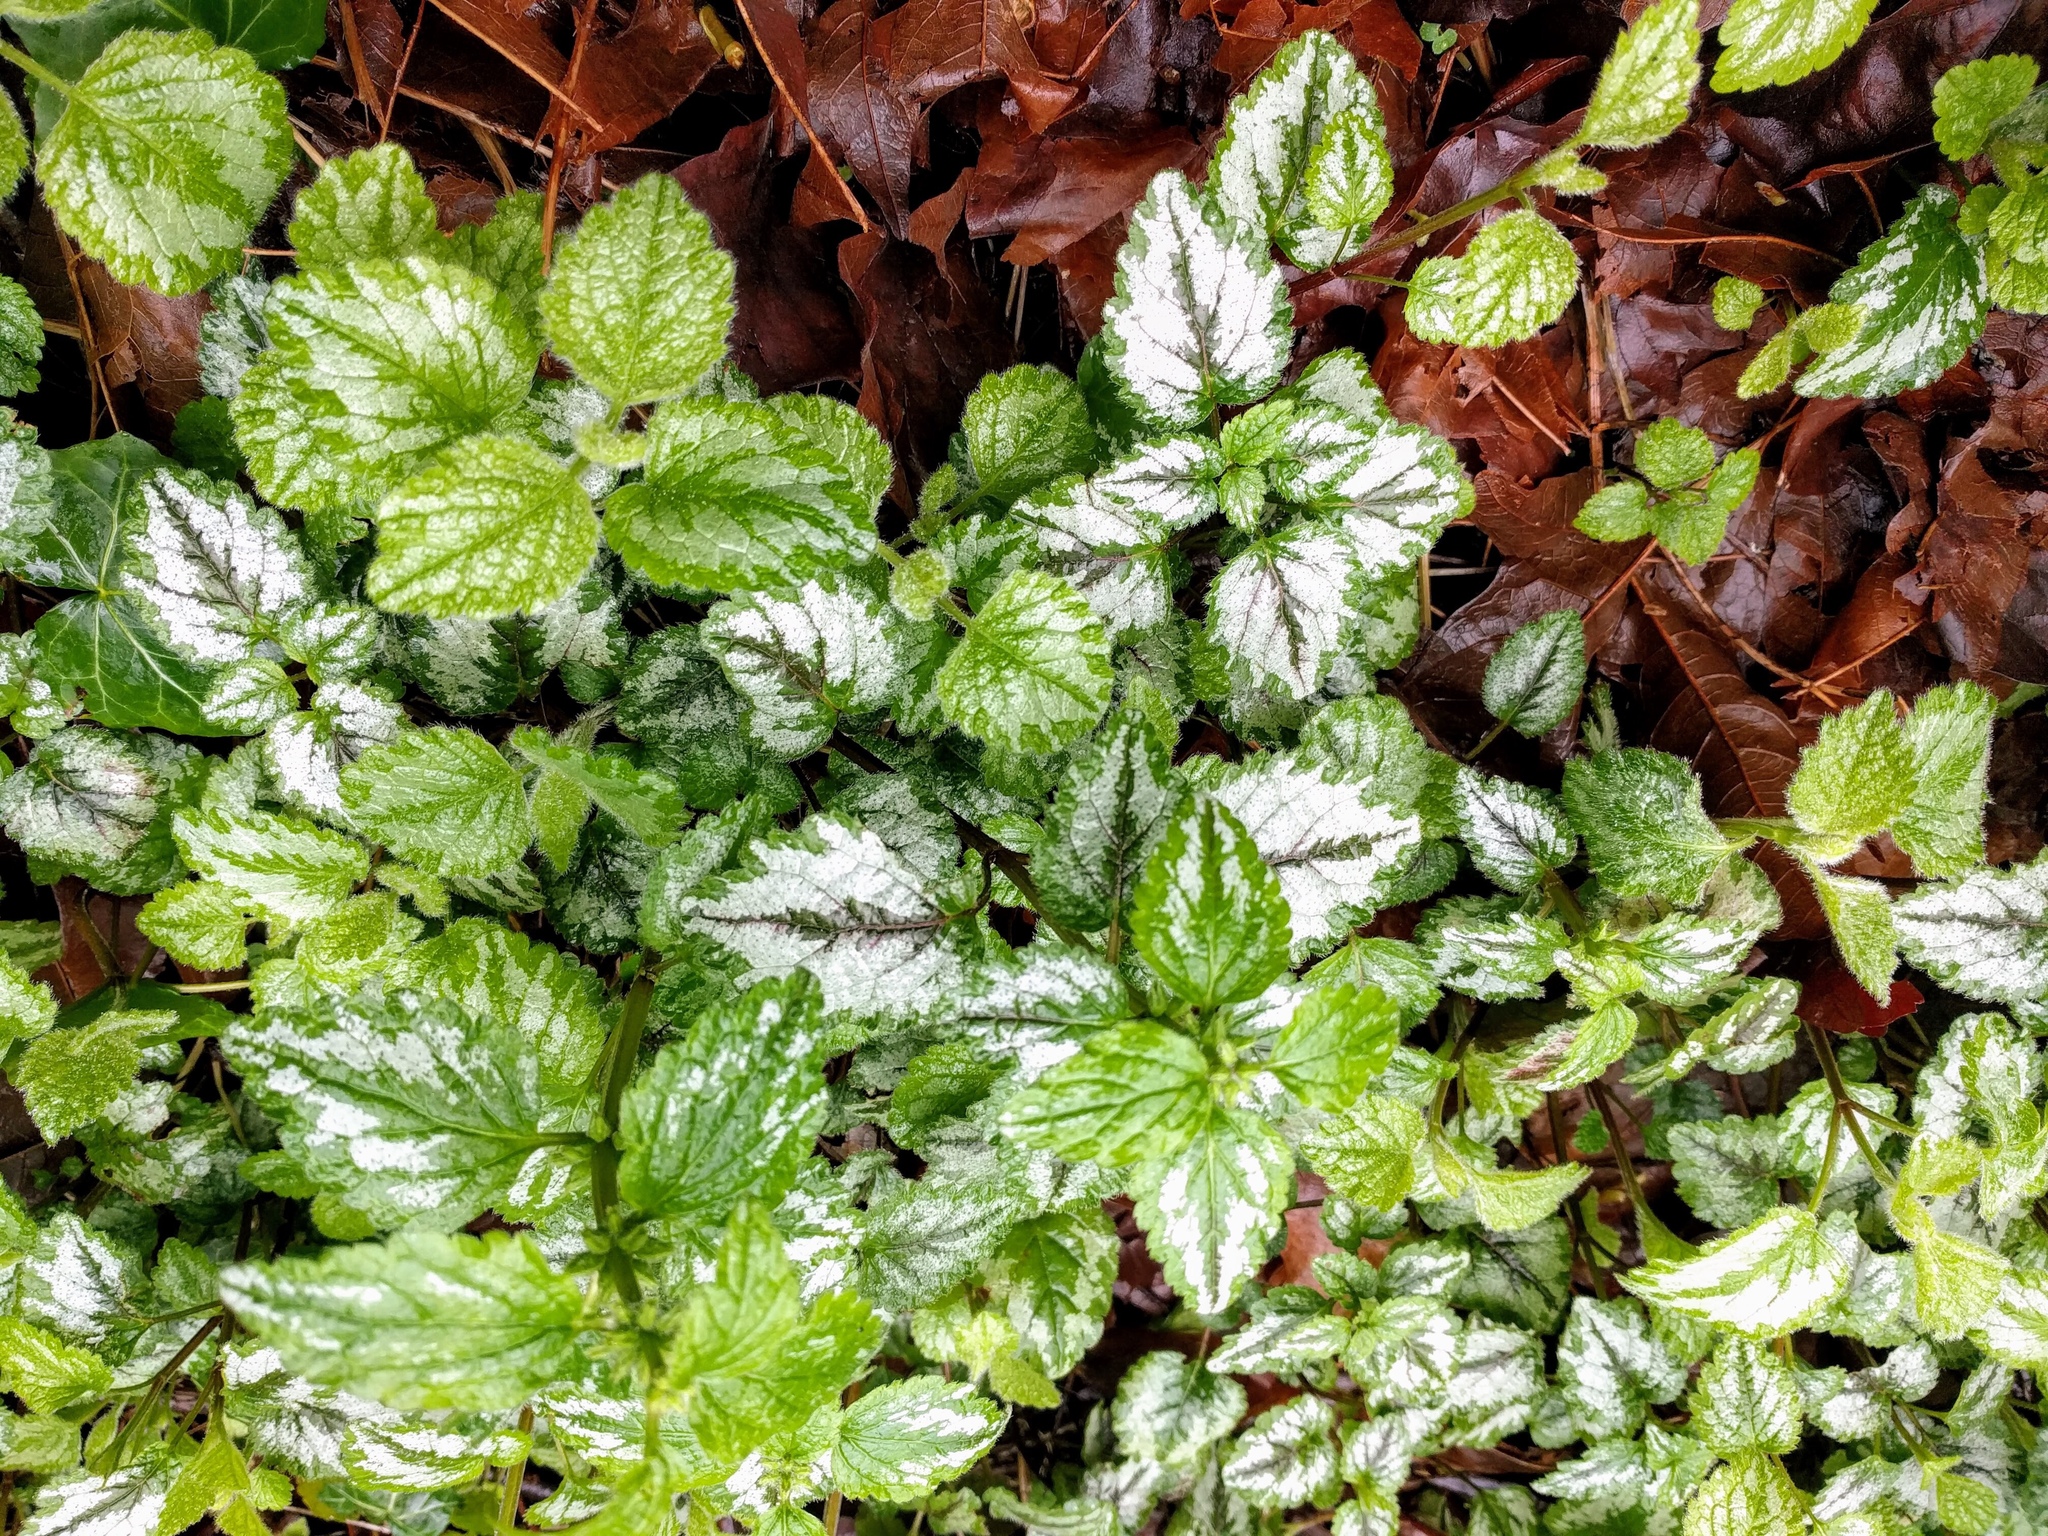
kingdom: Plantae
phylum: Tracheophyta
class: Magnoliopsida
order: Lamiales
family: Lamiaceae
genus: Lamium
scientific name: Lamium galeobdolon
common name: Yellow archangel
